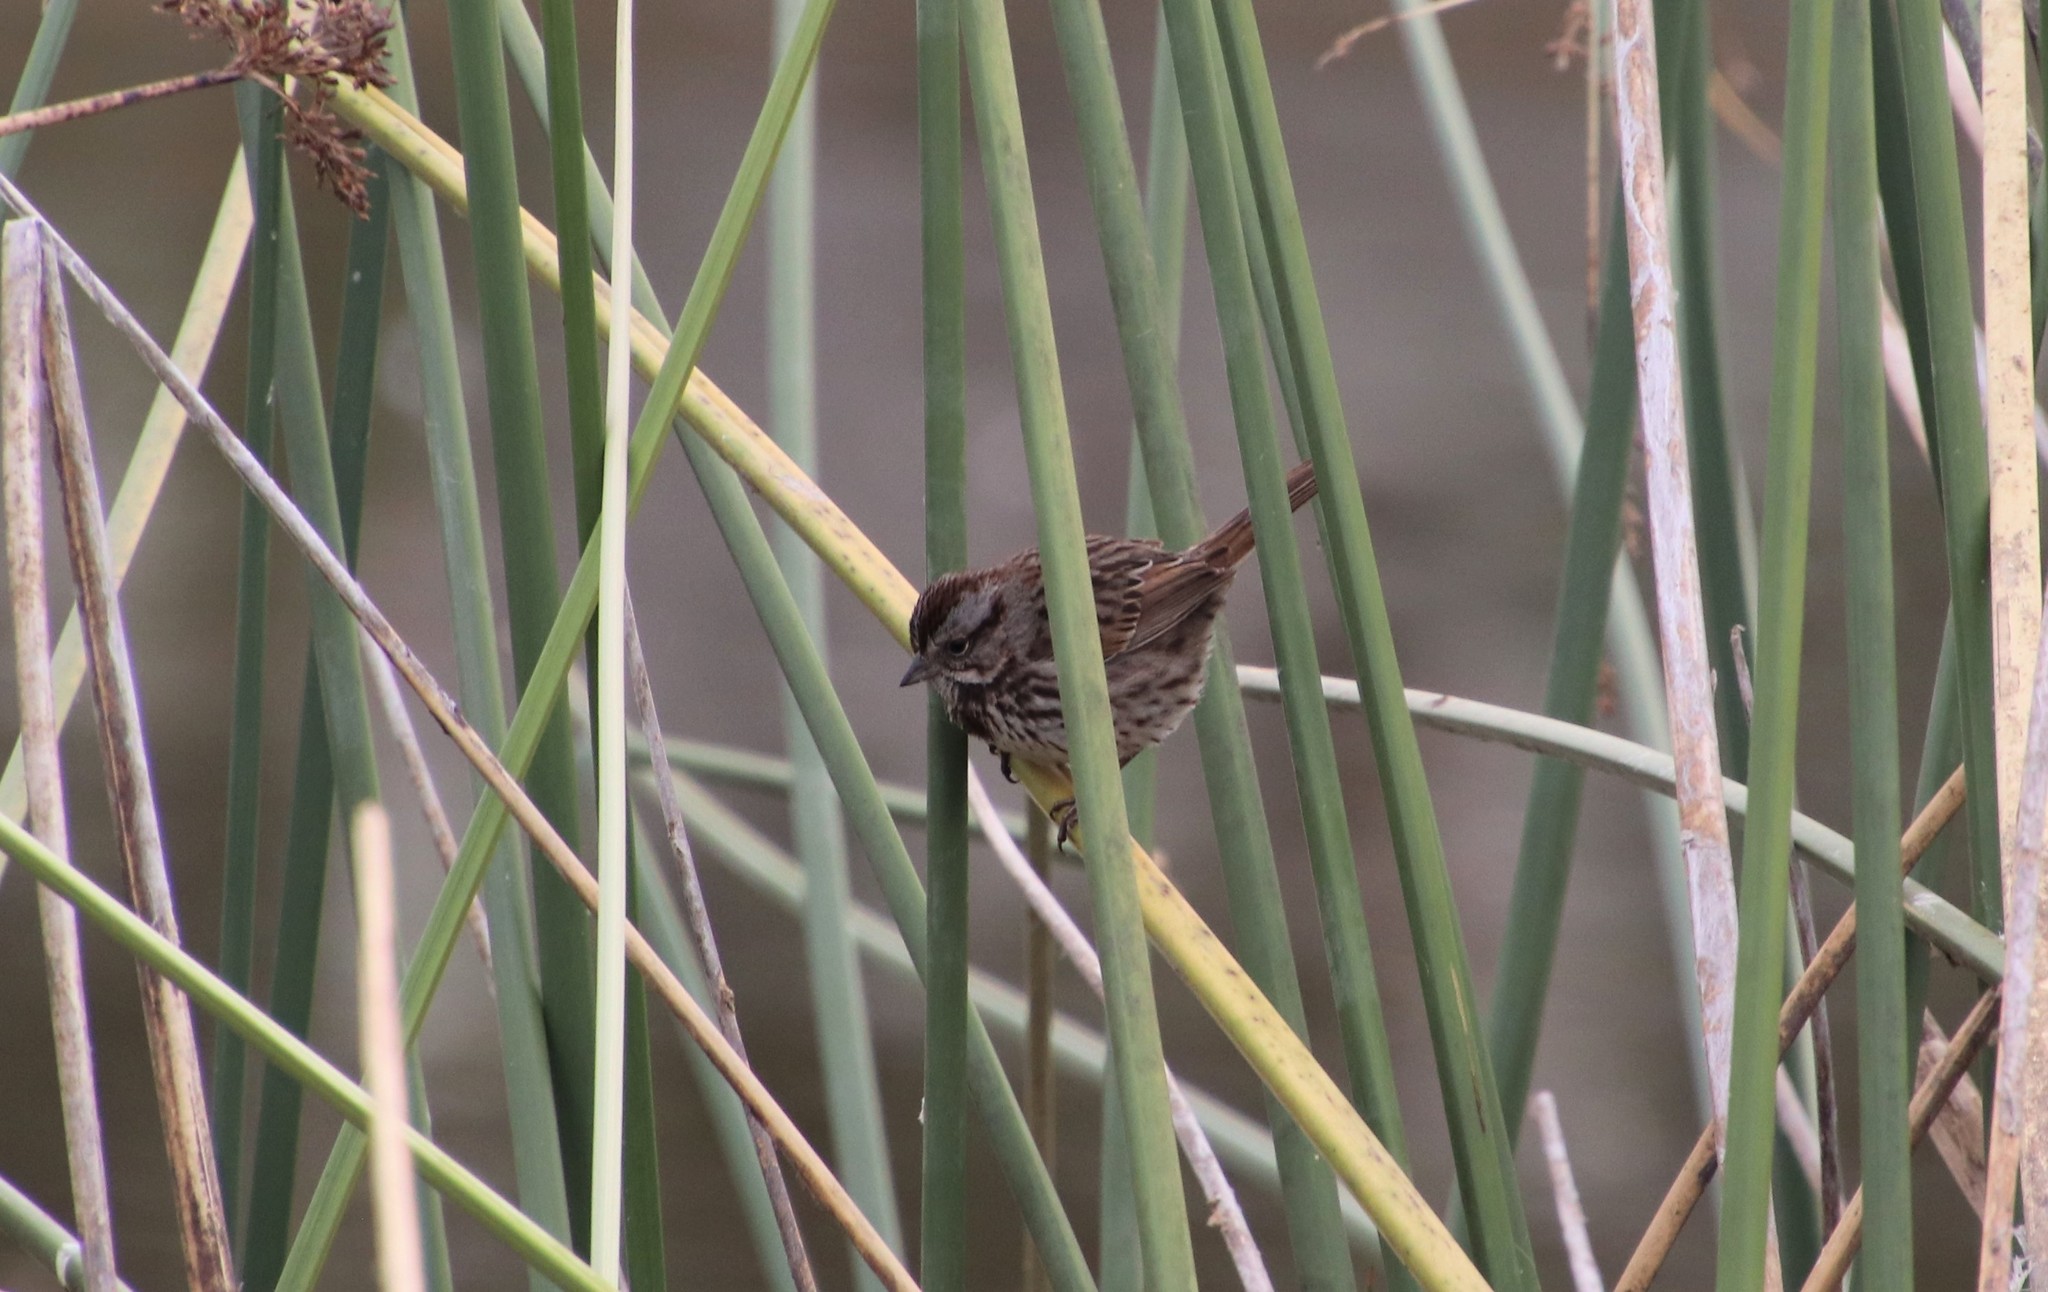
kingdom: Animalia
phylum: Chordata
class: Aves
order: Passeriformes
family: Passerellidae
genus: Melospiza
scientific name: Melospiza melodia
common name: Song sparrow
